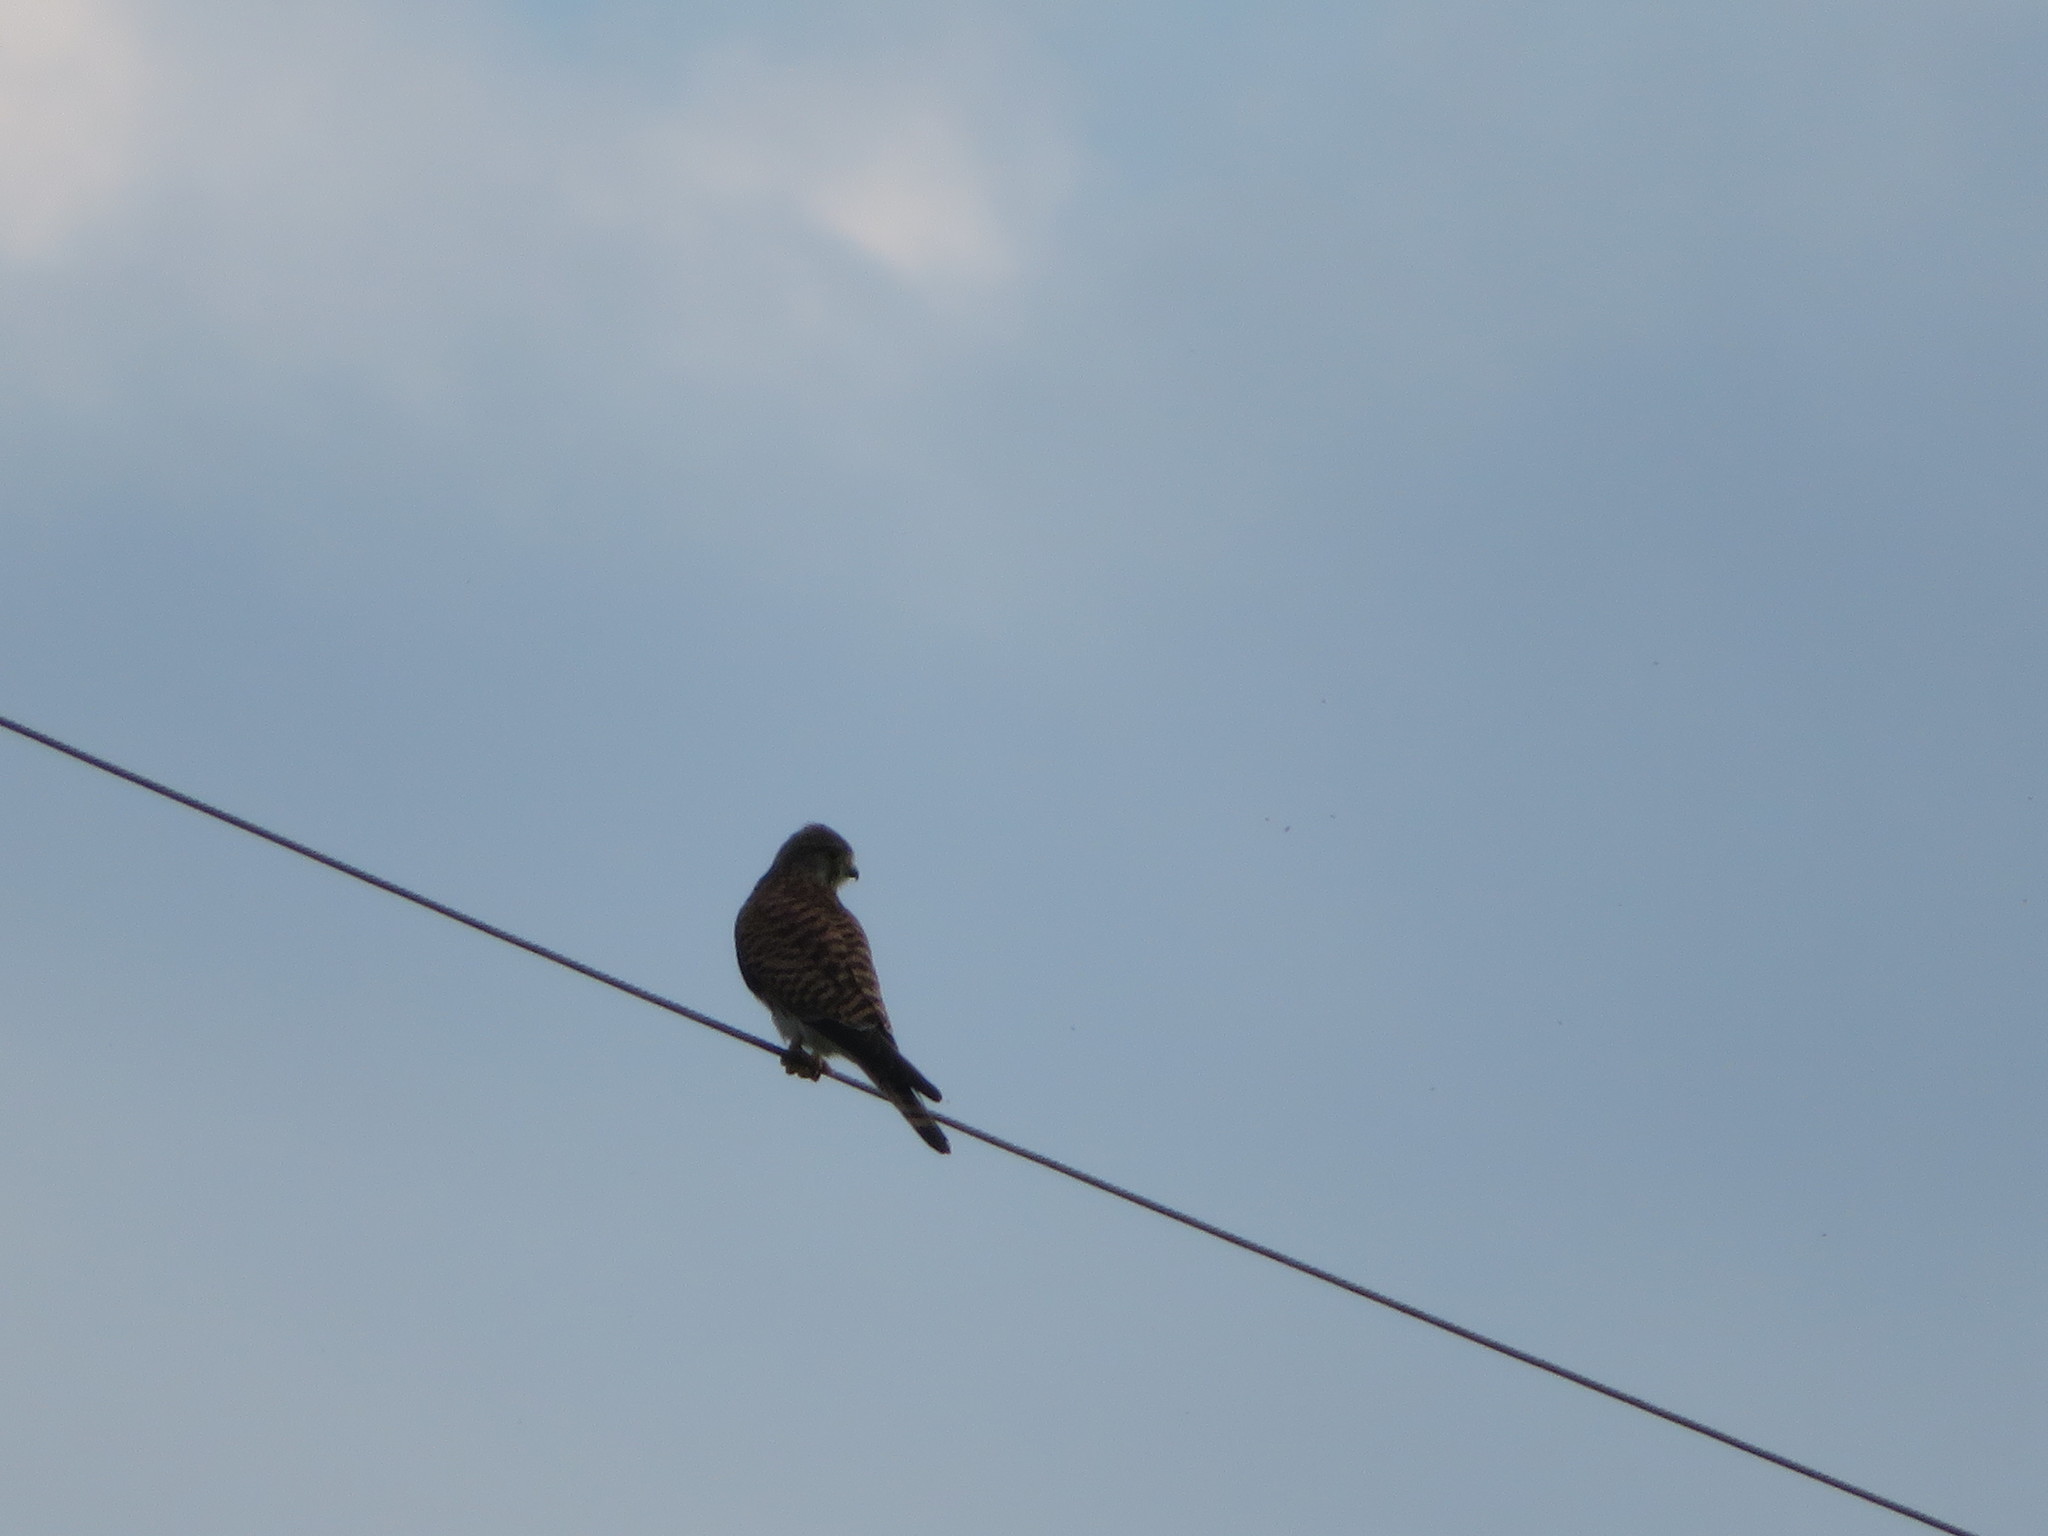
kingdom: Animalia
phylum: Chordata
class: Aves
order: Falconiformes
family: Falconidae
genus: Falco
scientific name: Falco tinnunculus
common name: Common kestrel
